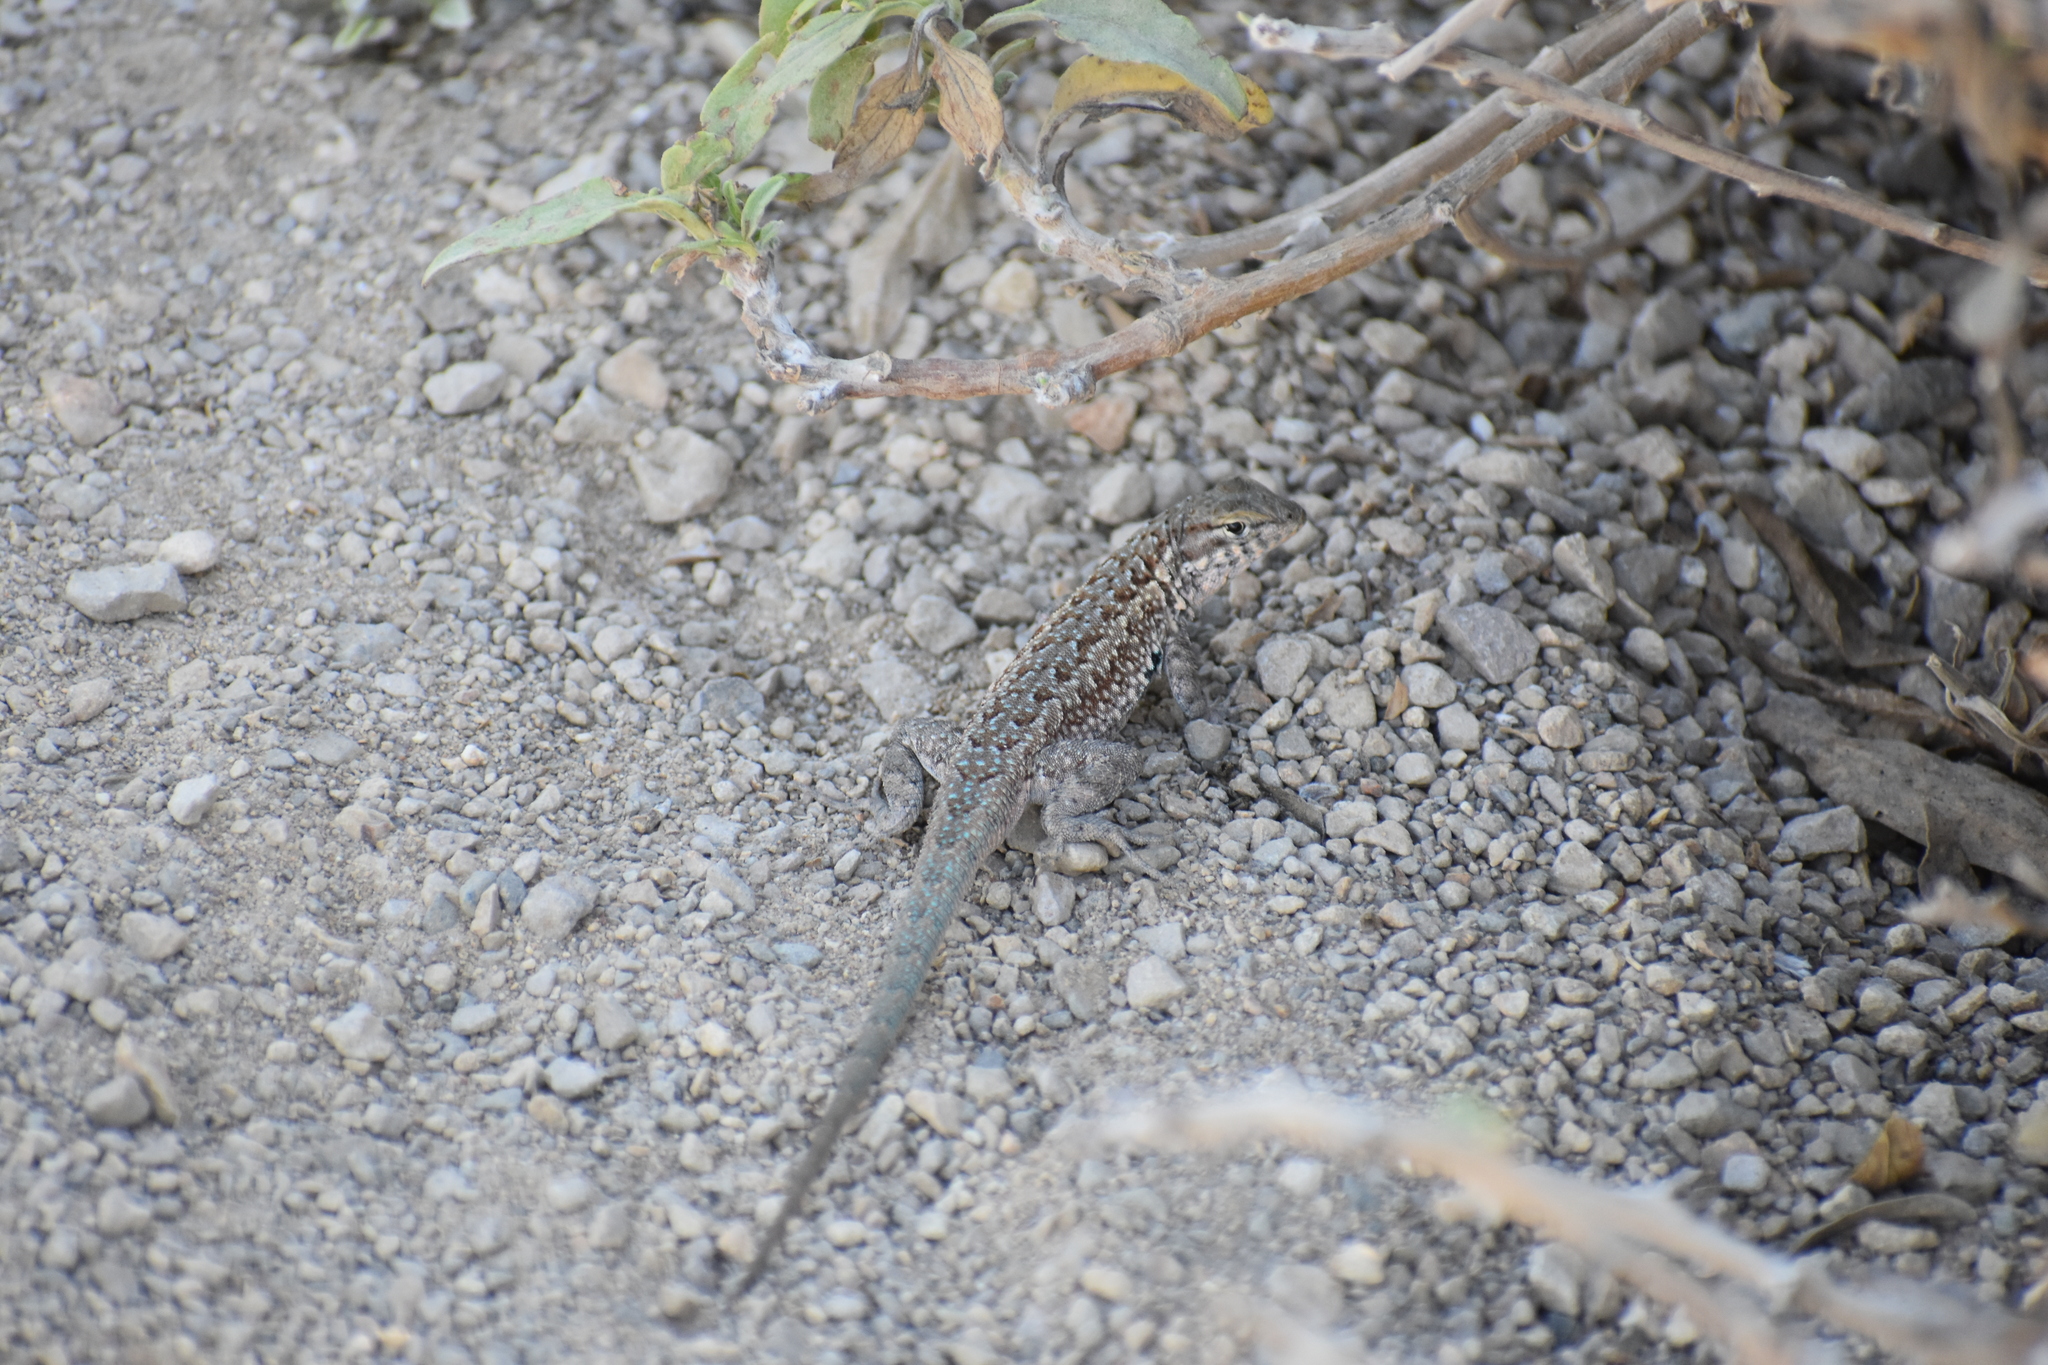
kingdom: Animalia
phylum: Chordata
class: Squamata
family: Phrynosomatidae
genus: Uta
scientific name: Uta stansburiana
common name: Side-blotched lizard
